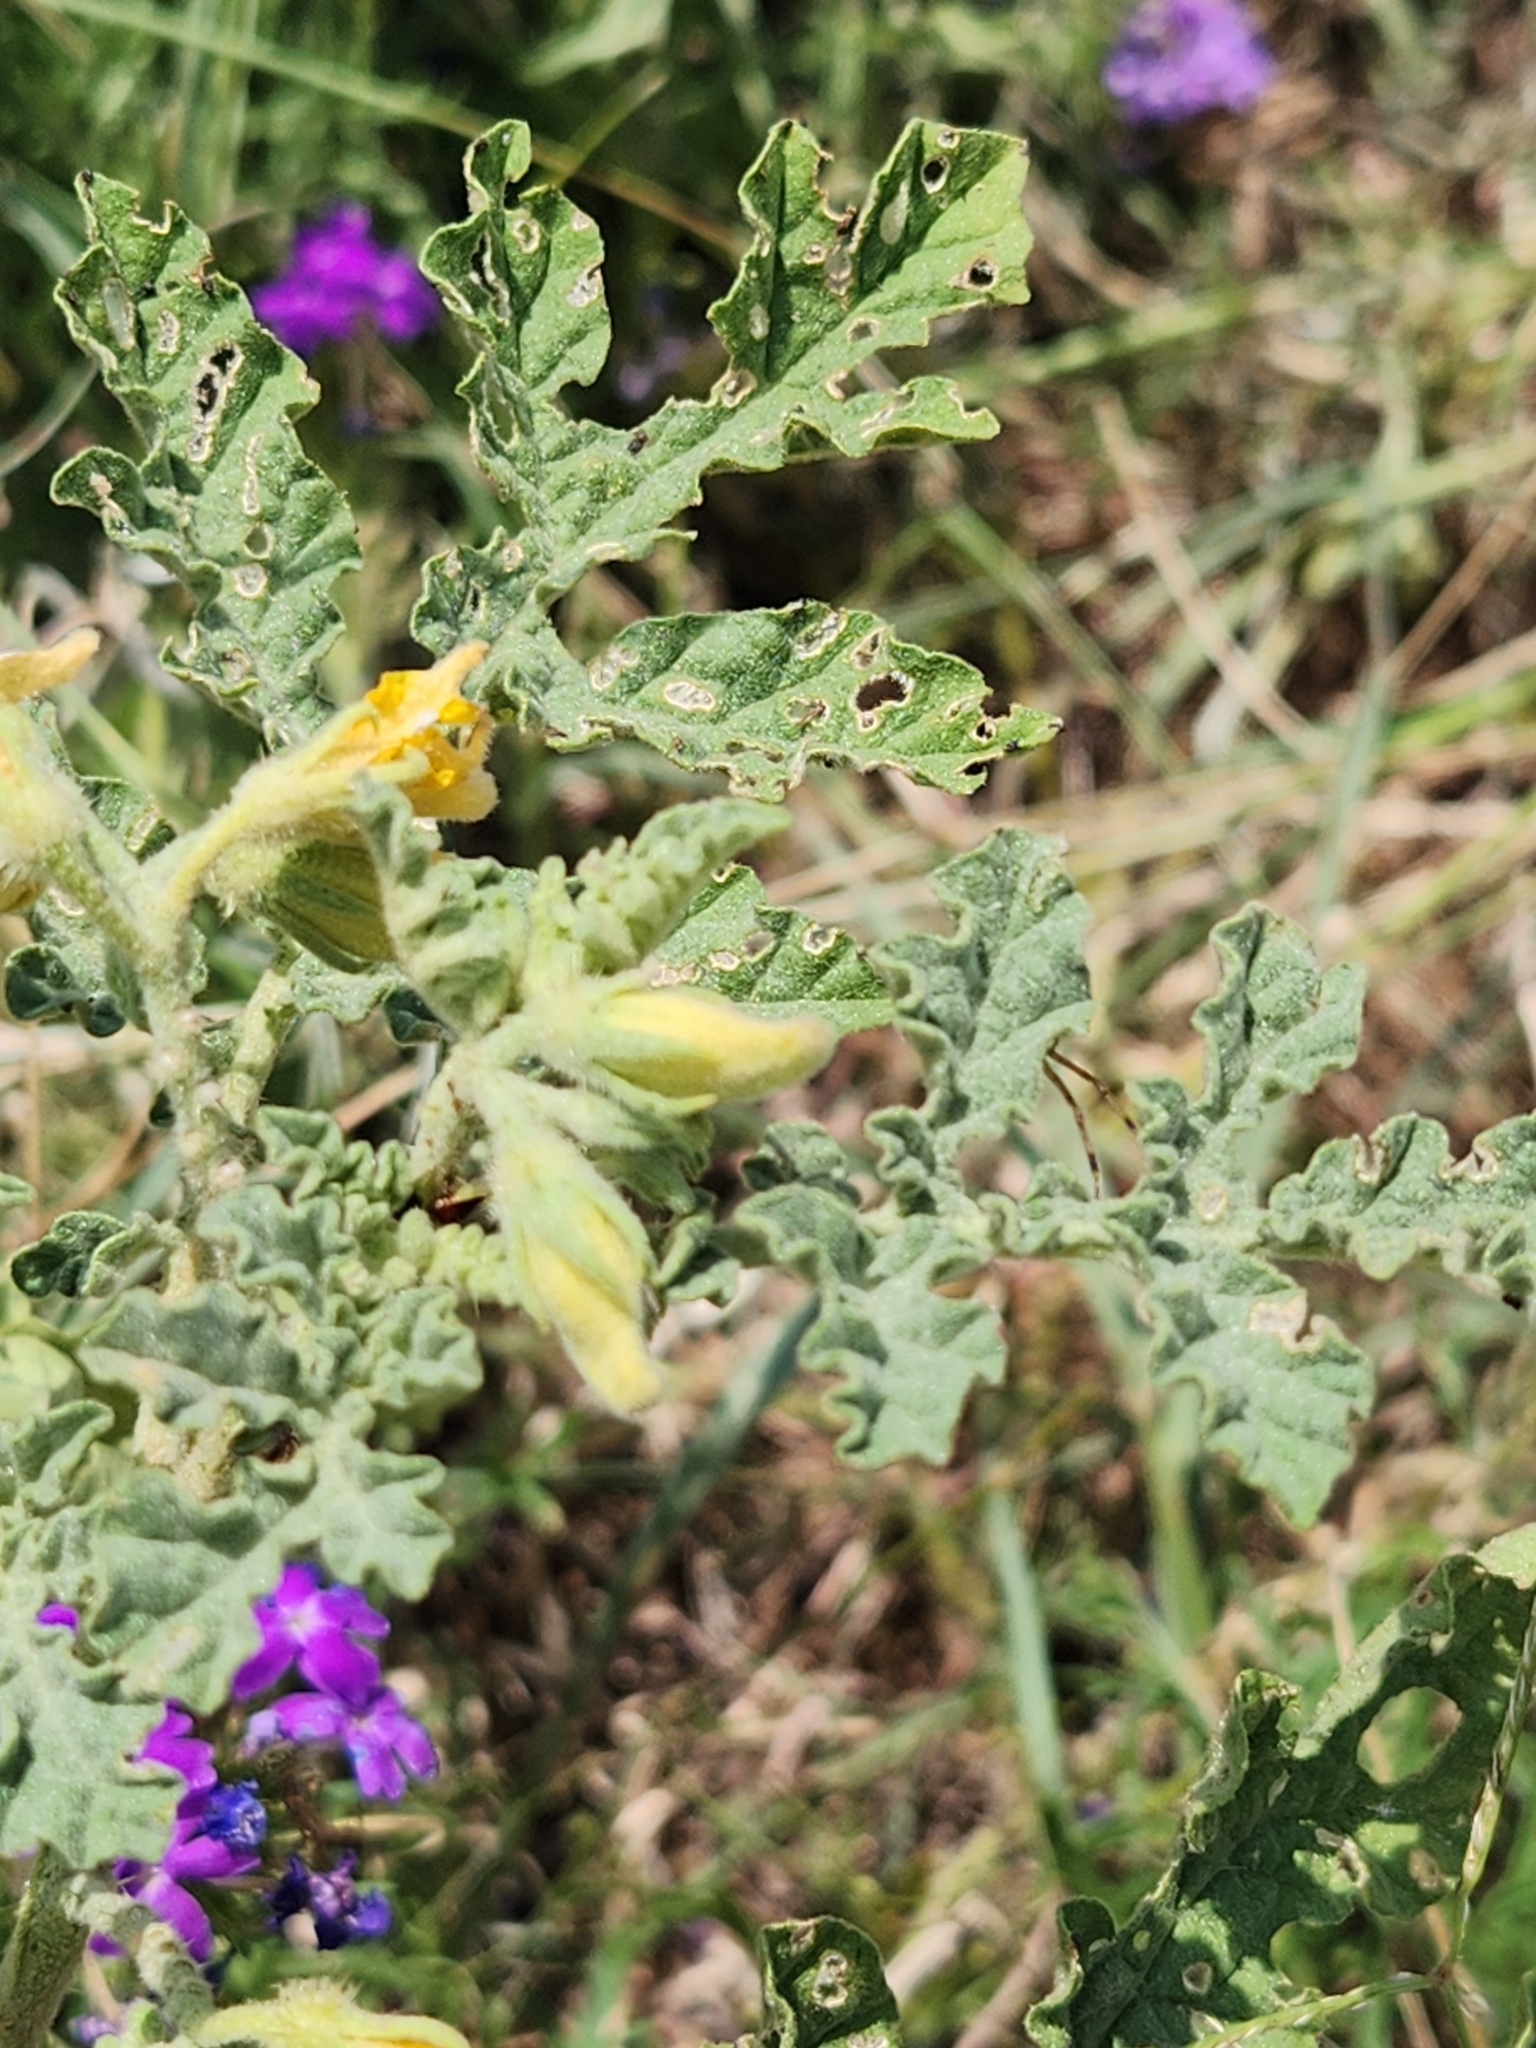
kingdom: Plantae
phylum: Tracheophyta
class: Magnoliopsida
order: Solanales
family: Solanaceae
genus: Solanum
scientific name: Solanum angustifolium
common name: Buffalobur nightshade
